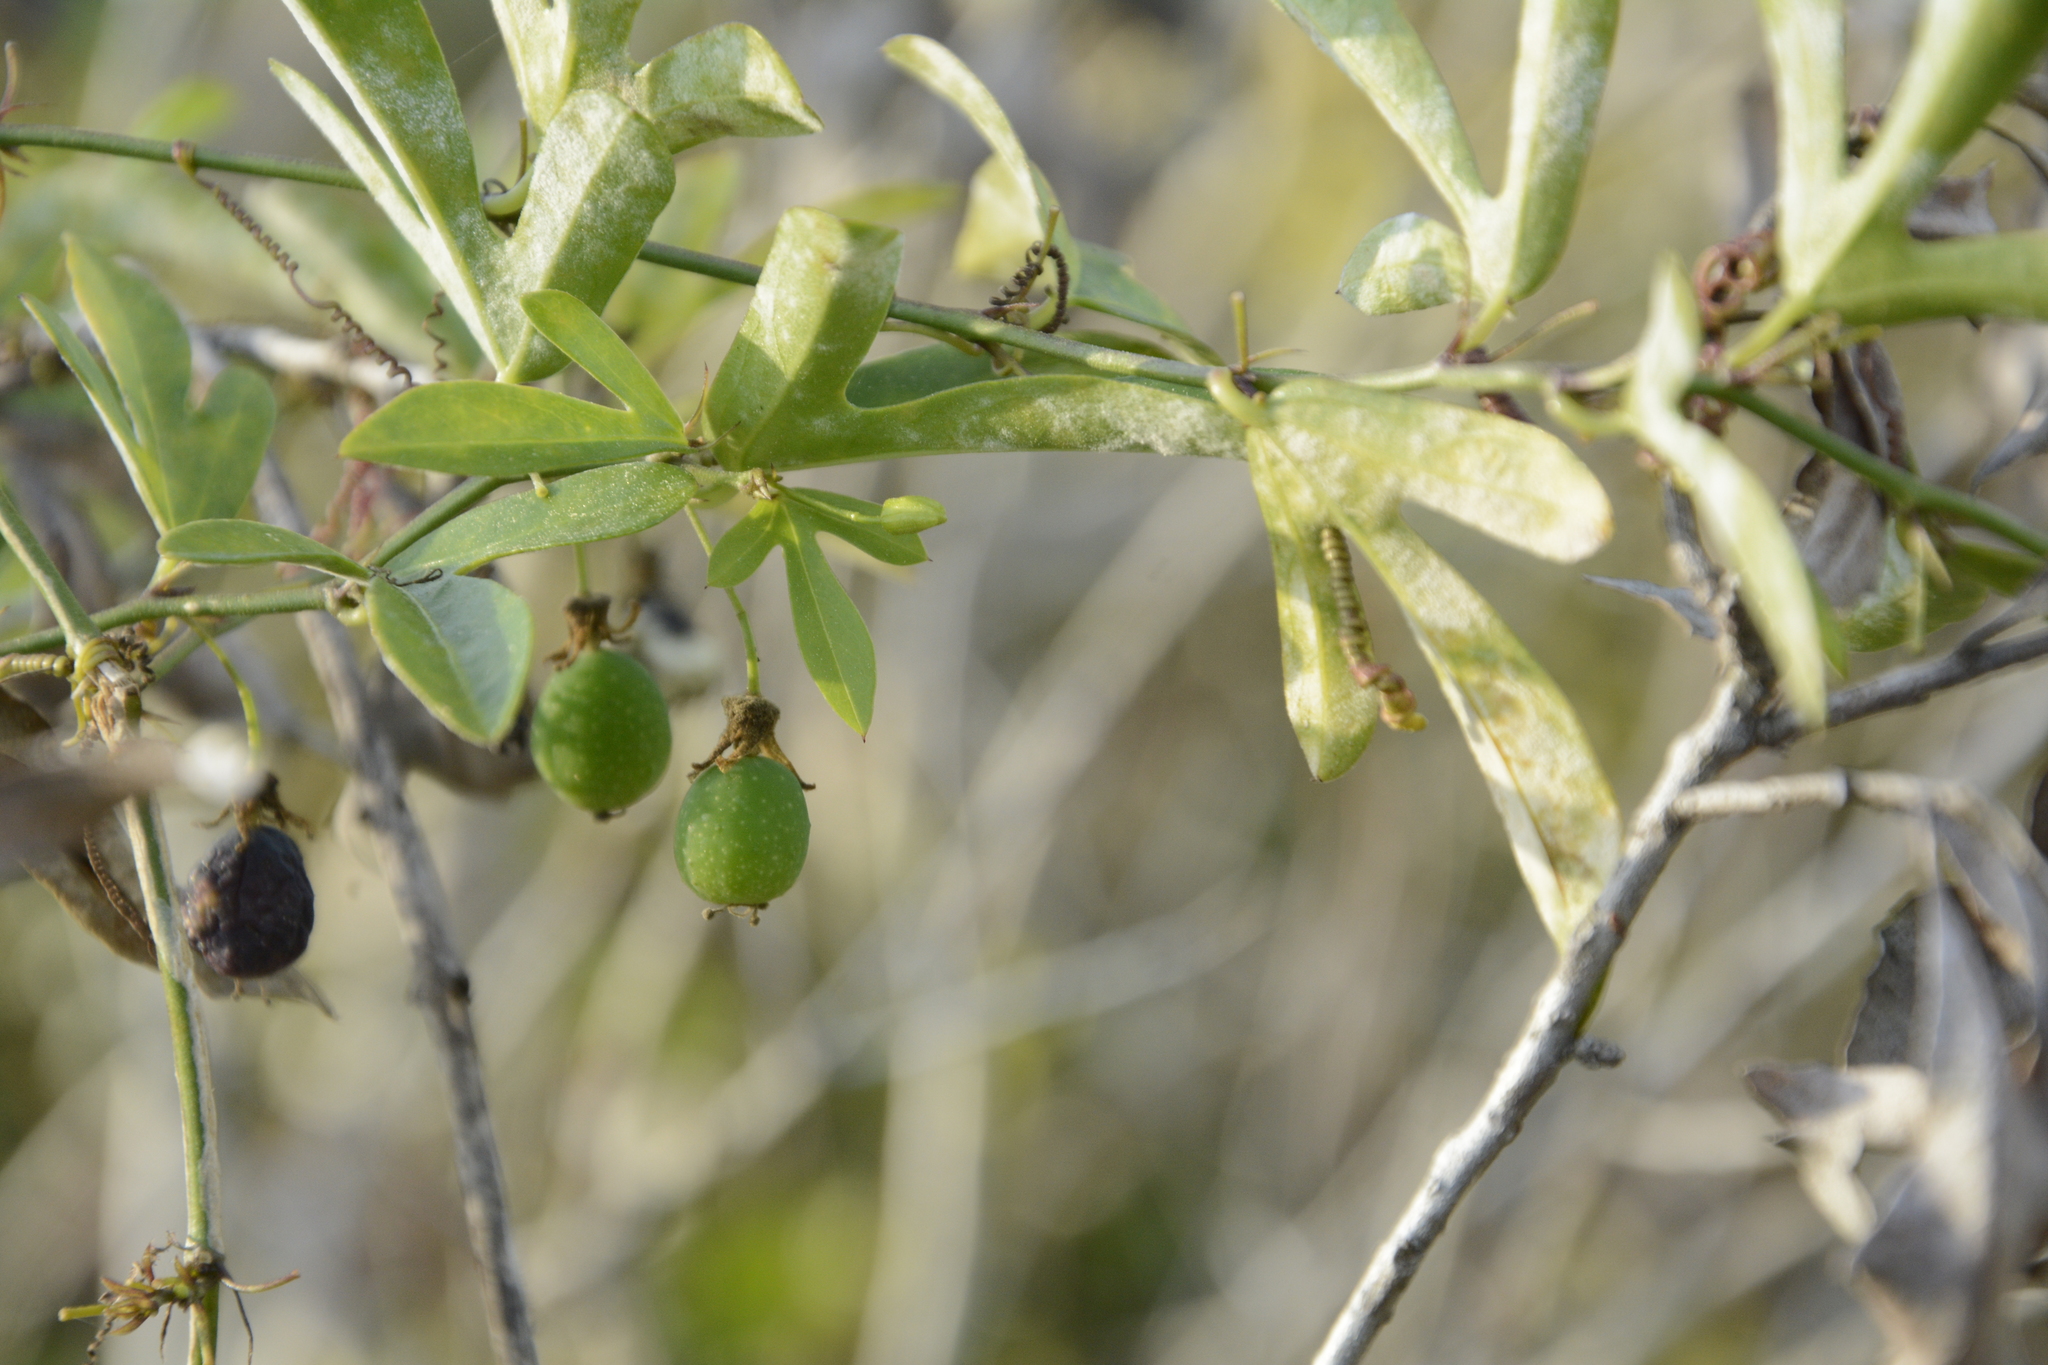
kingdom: Plantae
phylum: Tracheophyta
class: Magnoliopsida
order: Malpighiales
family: Passifloraceae
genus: Passiflora
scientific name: Passiflora pallida
